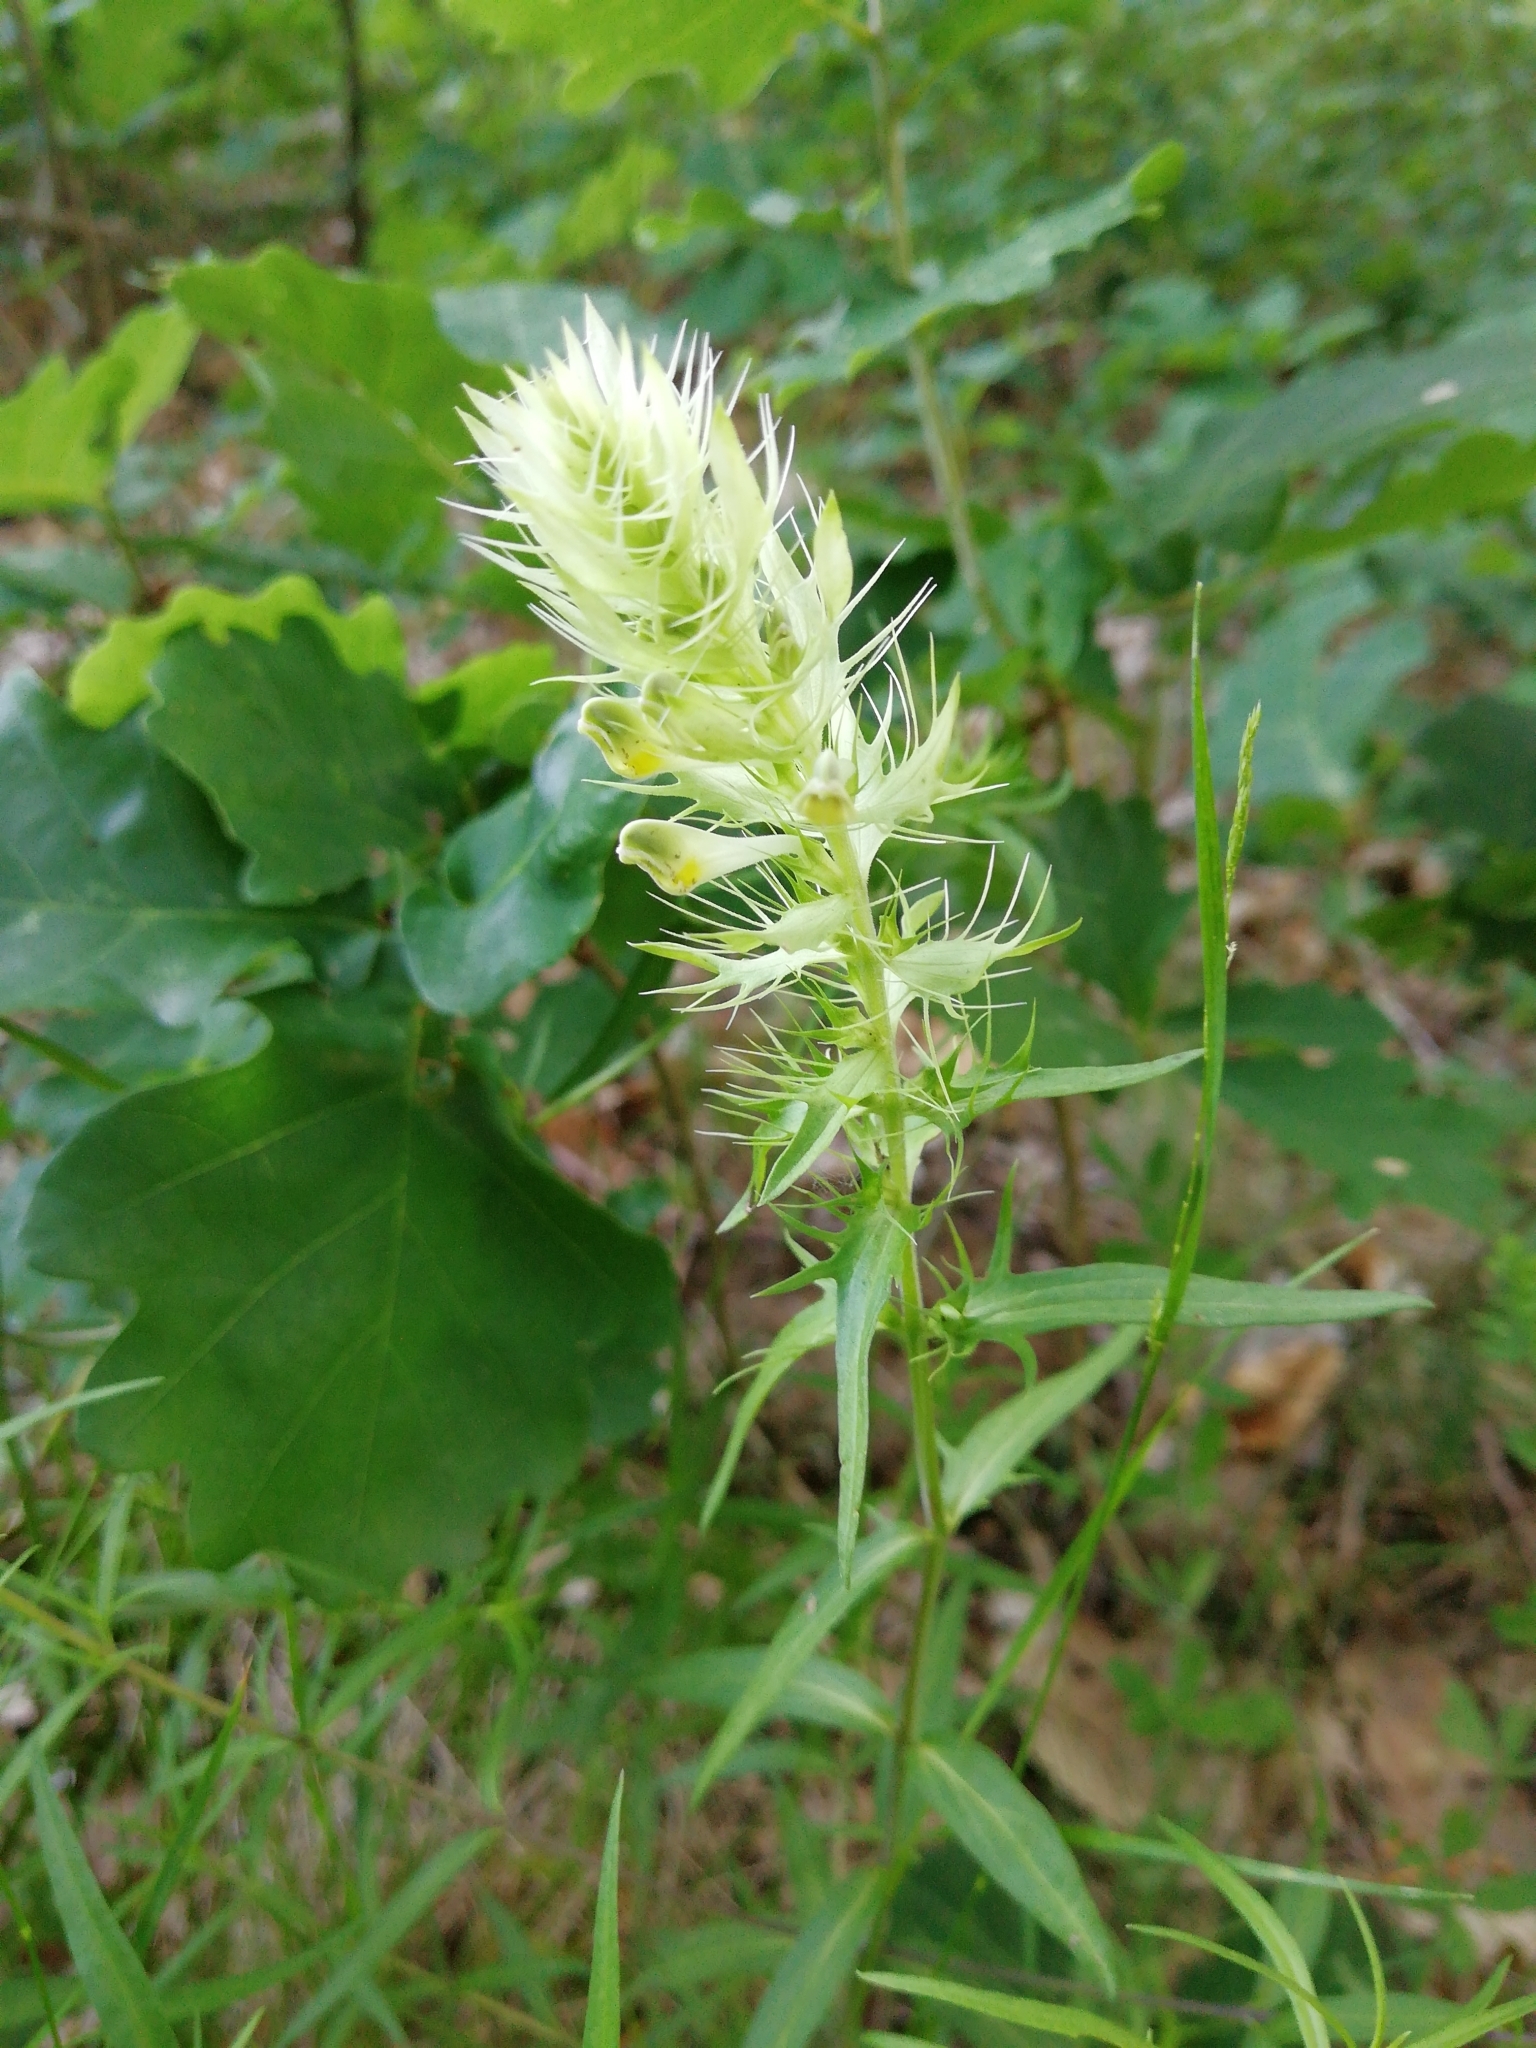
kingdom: Plantae
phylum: Tracheophyta
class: Magnoliopsida
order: Lamiales
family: Orobanchaceae
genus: Melampyrum
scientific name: Melampyrum arvense
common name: Field cow-wheat
